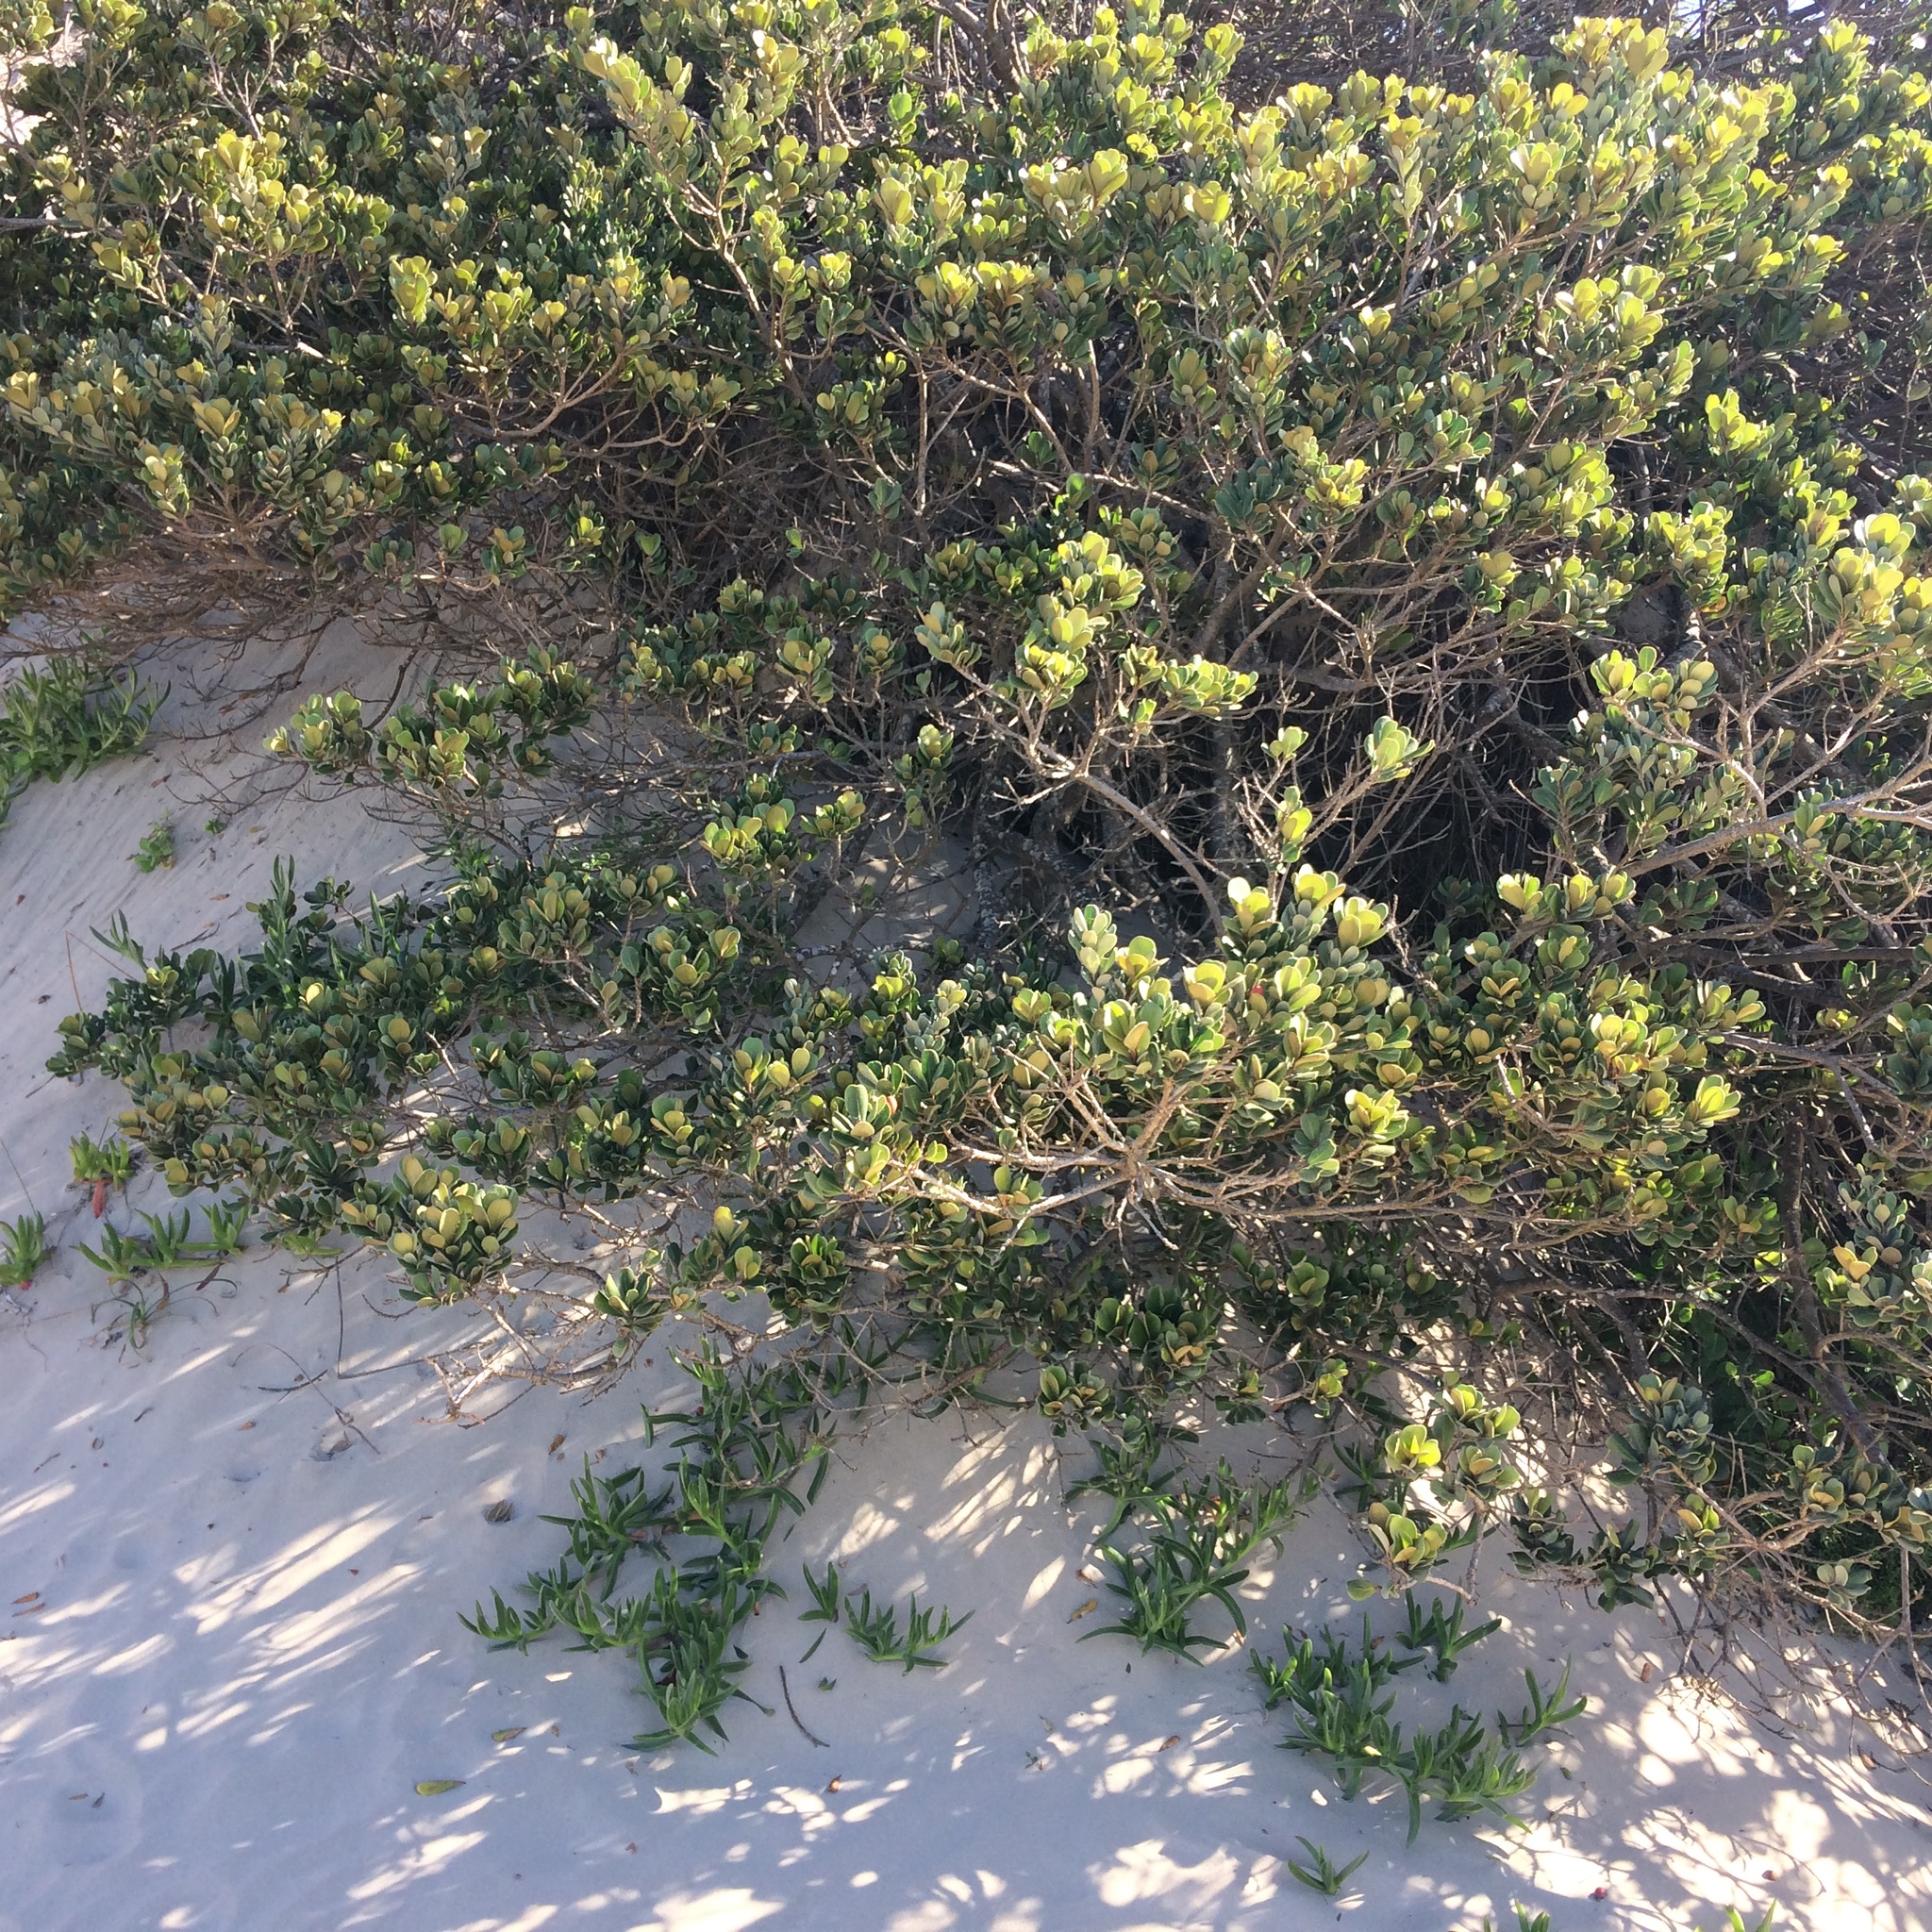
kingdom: Plantae
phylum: Tracheophyta
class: Magnoliopsida
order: Ericales
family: Sapotaceae
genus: Mimusops
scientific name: Mimusops caffra
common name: Coastal red milkwood
